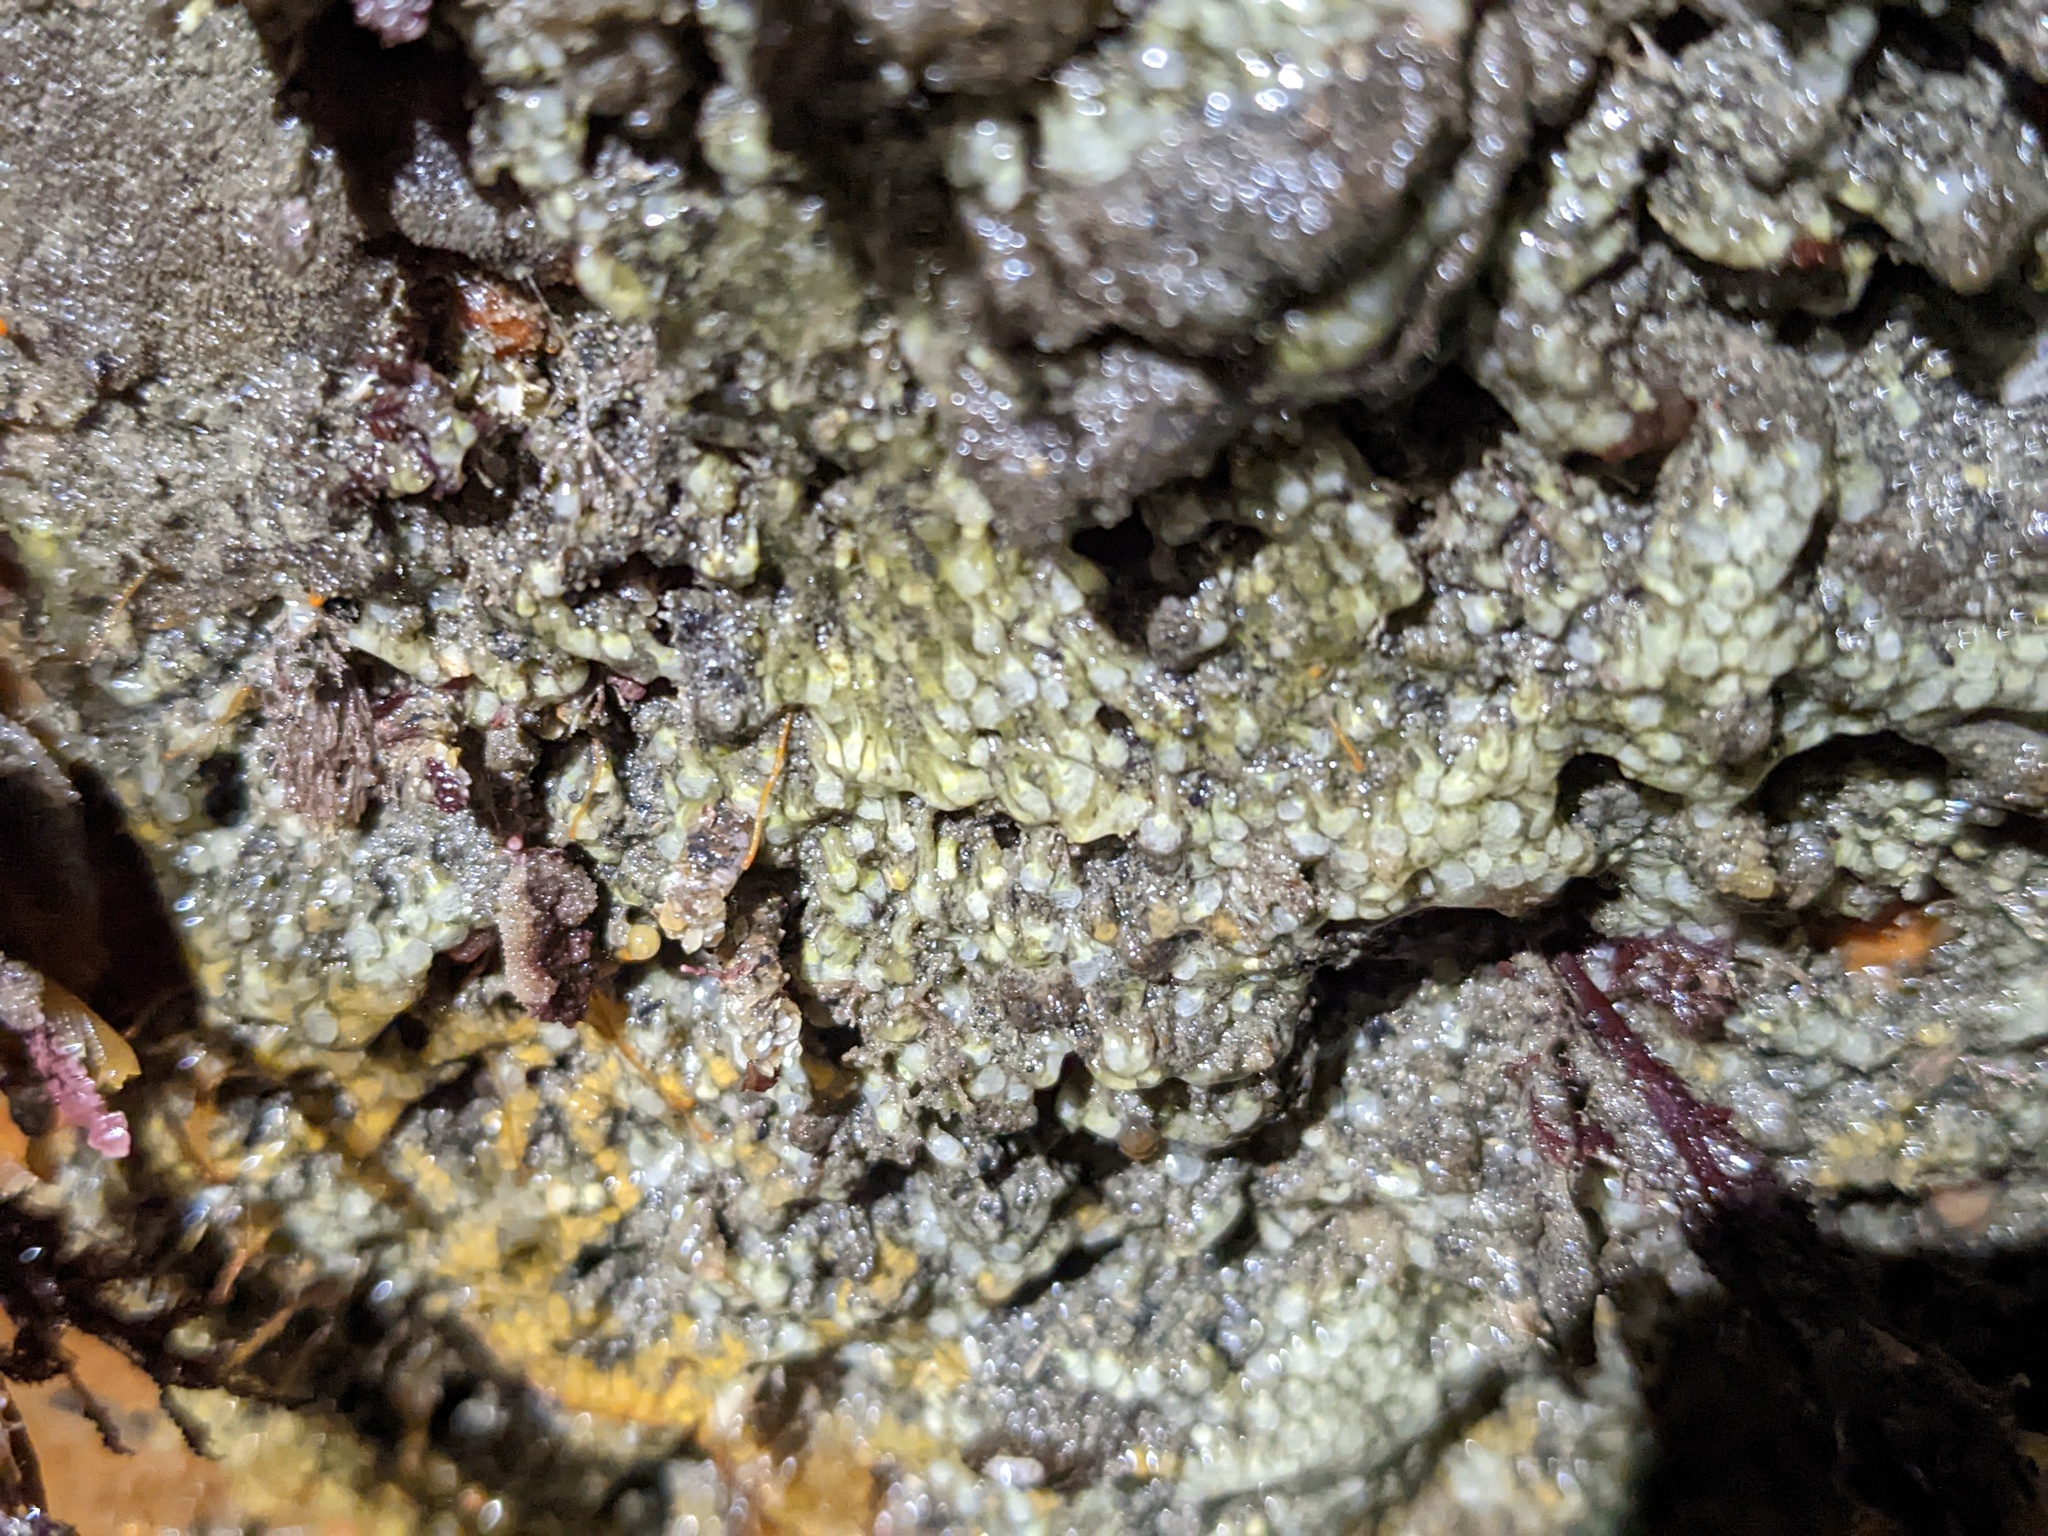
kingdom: Animalia
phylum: Chordata
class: Ascidiacea
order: Aplousobranchia
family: Clavelinidae
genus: Pycnoclavella
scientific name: Pycnoclavella stanleyi
